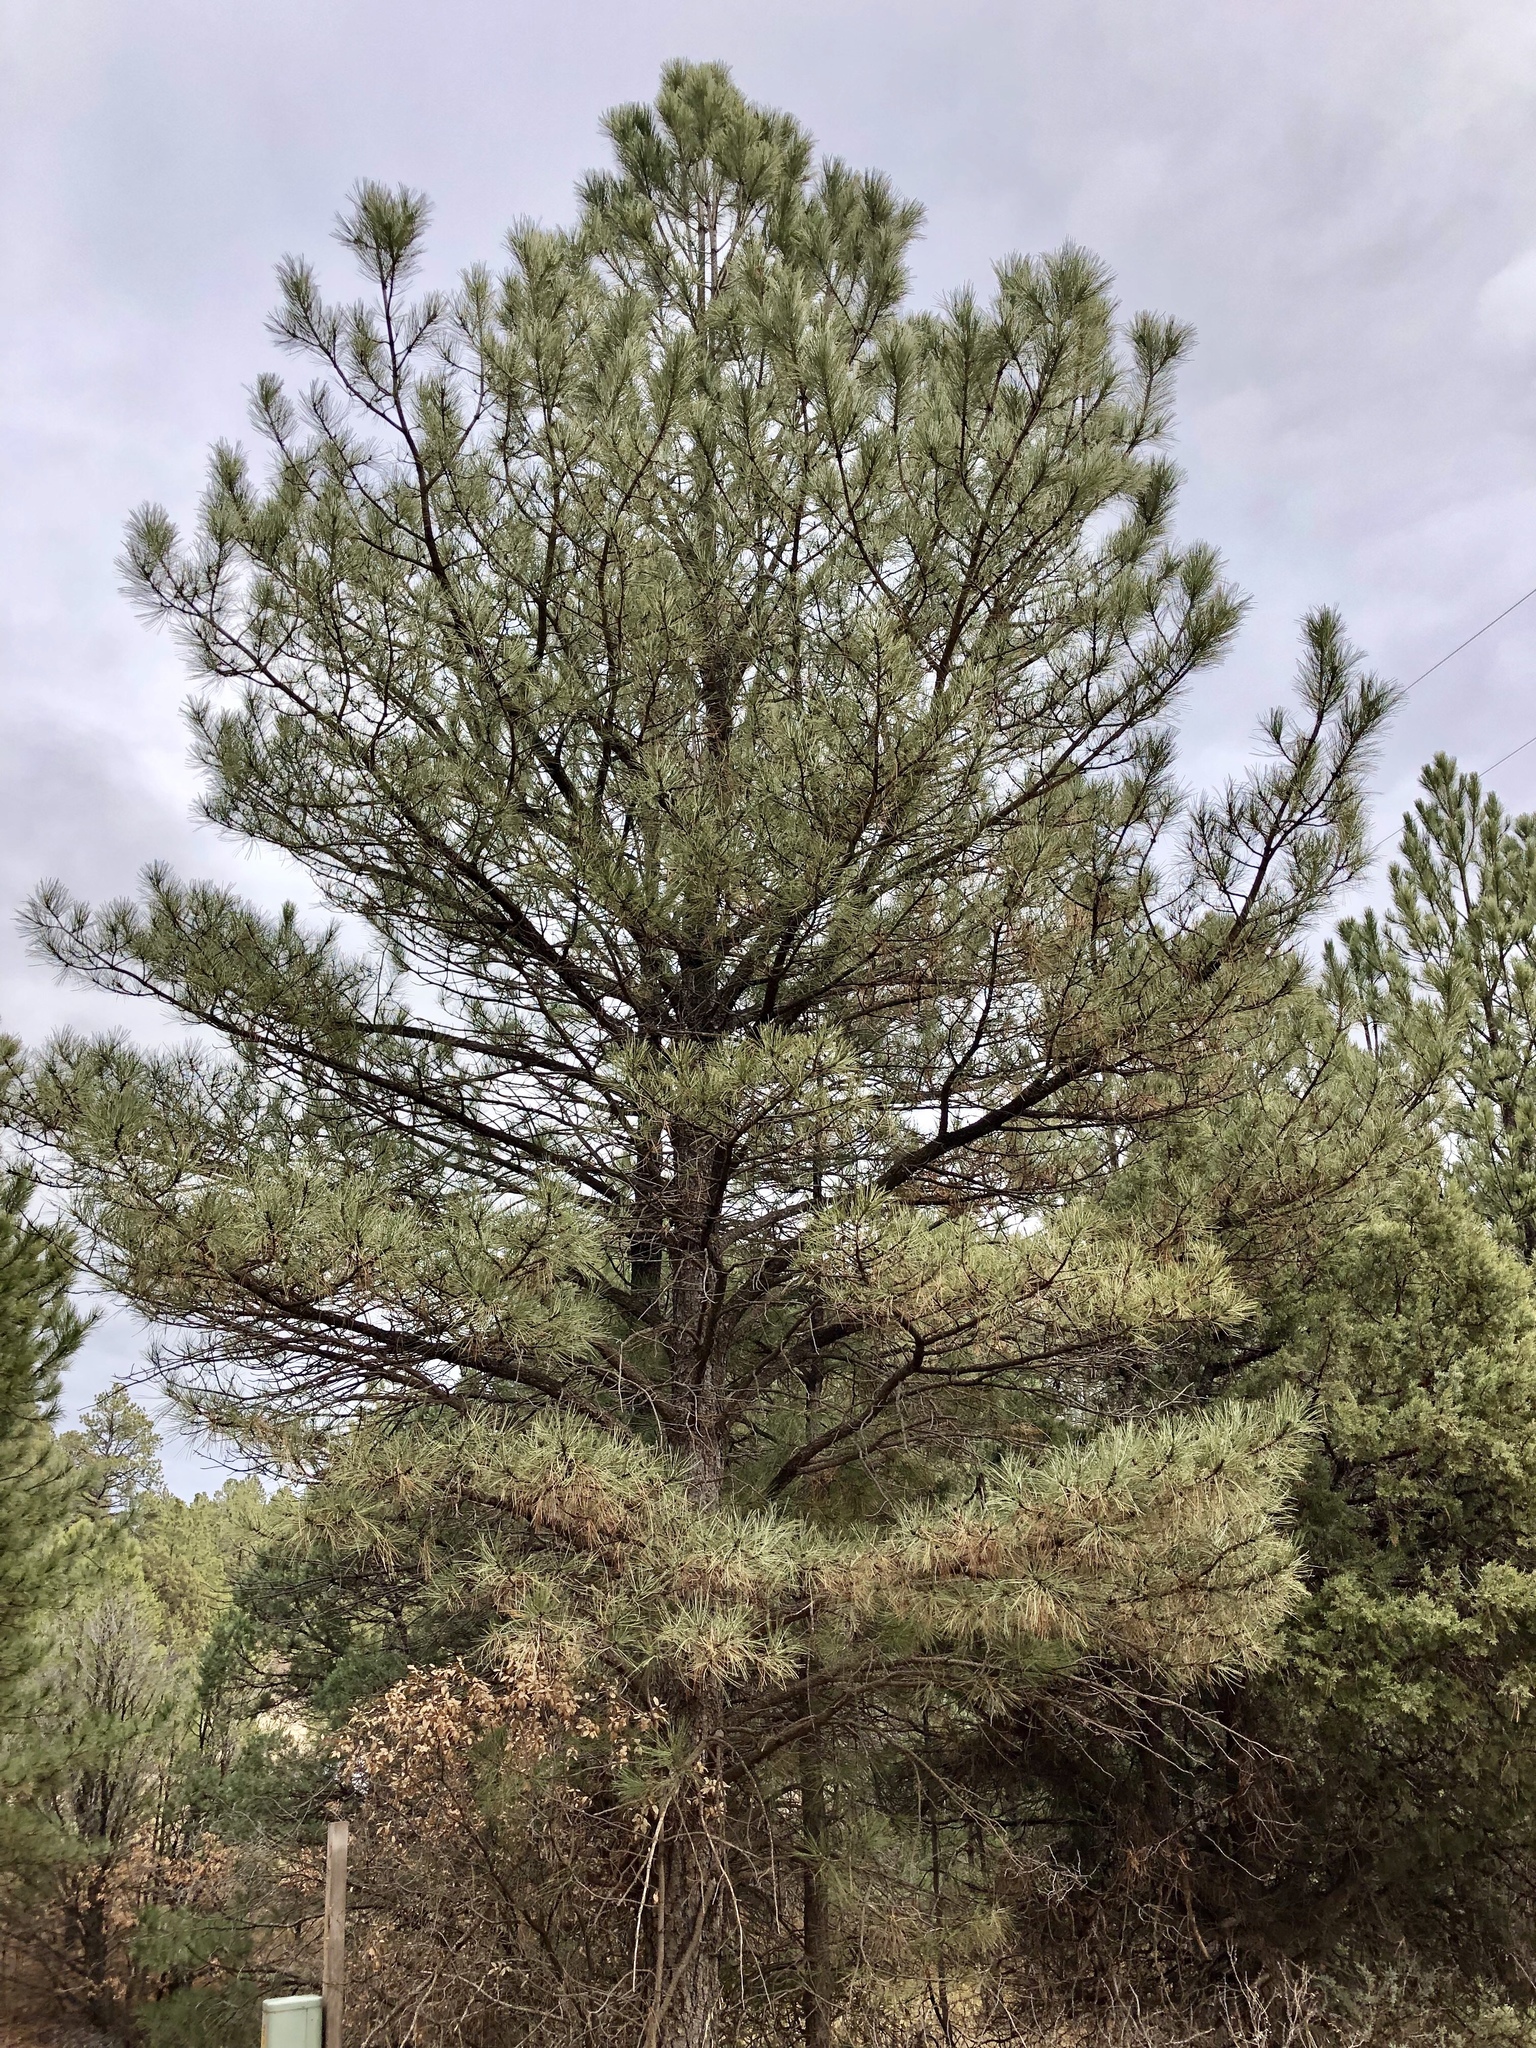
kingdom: Plantae
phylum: Tracheophyta
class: Pinopsida
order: Pinales
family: Pinaceae
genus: Pinus
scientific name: Pinus ponderosa
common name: Western yellow-pine
